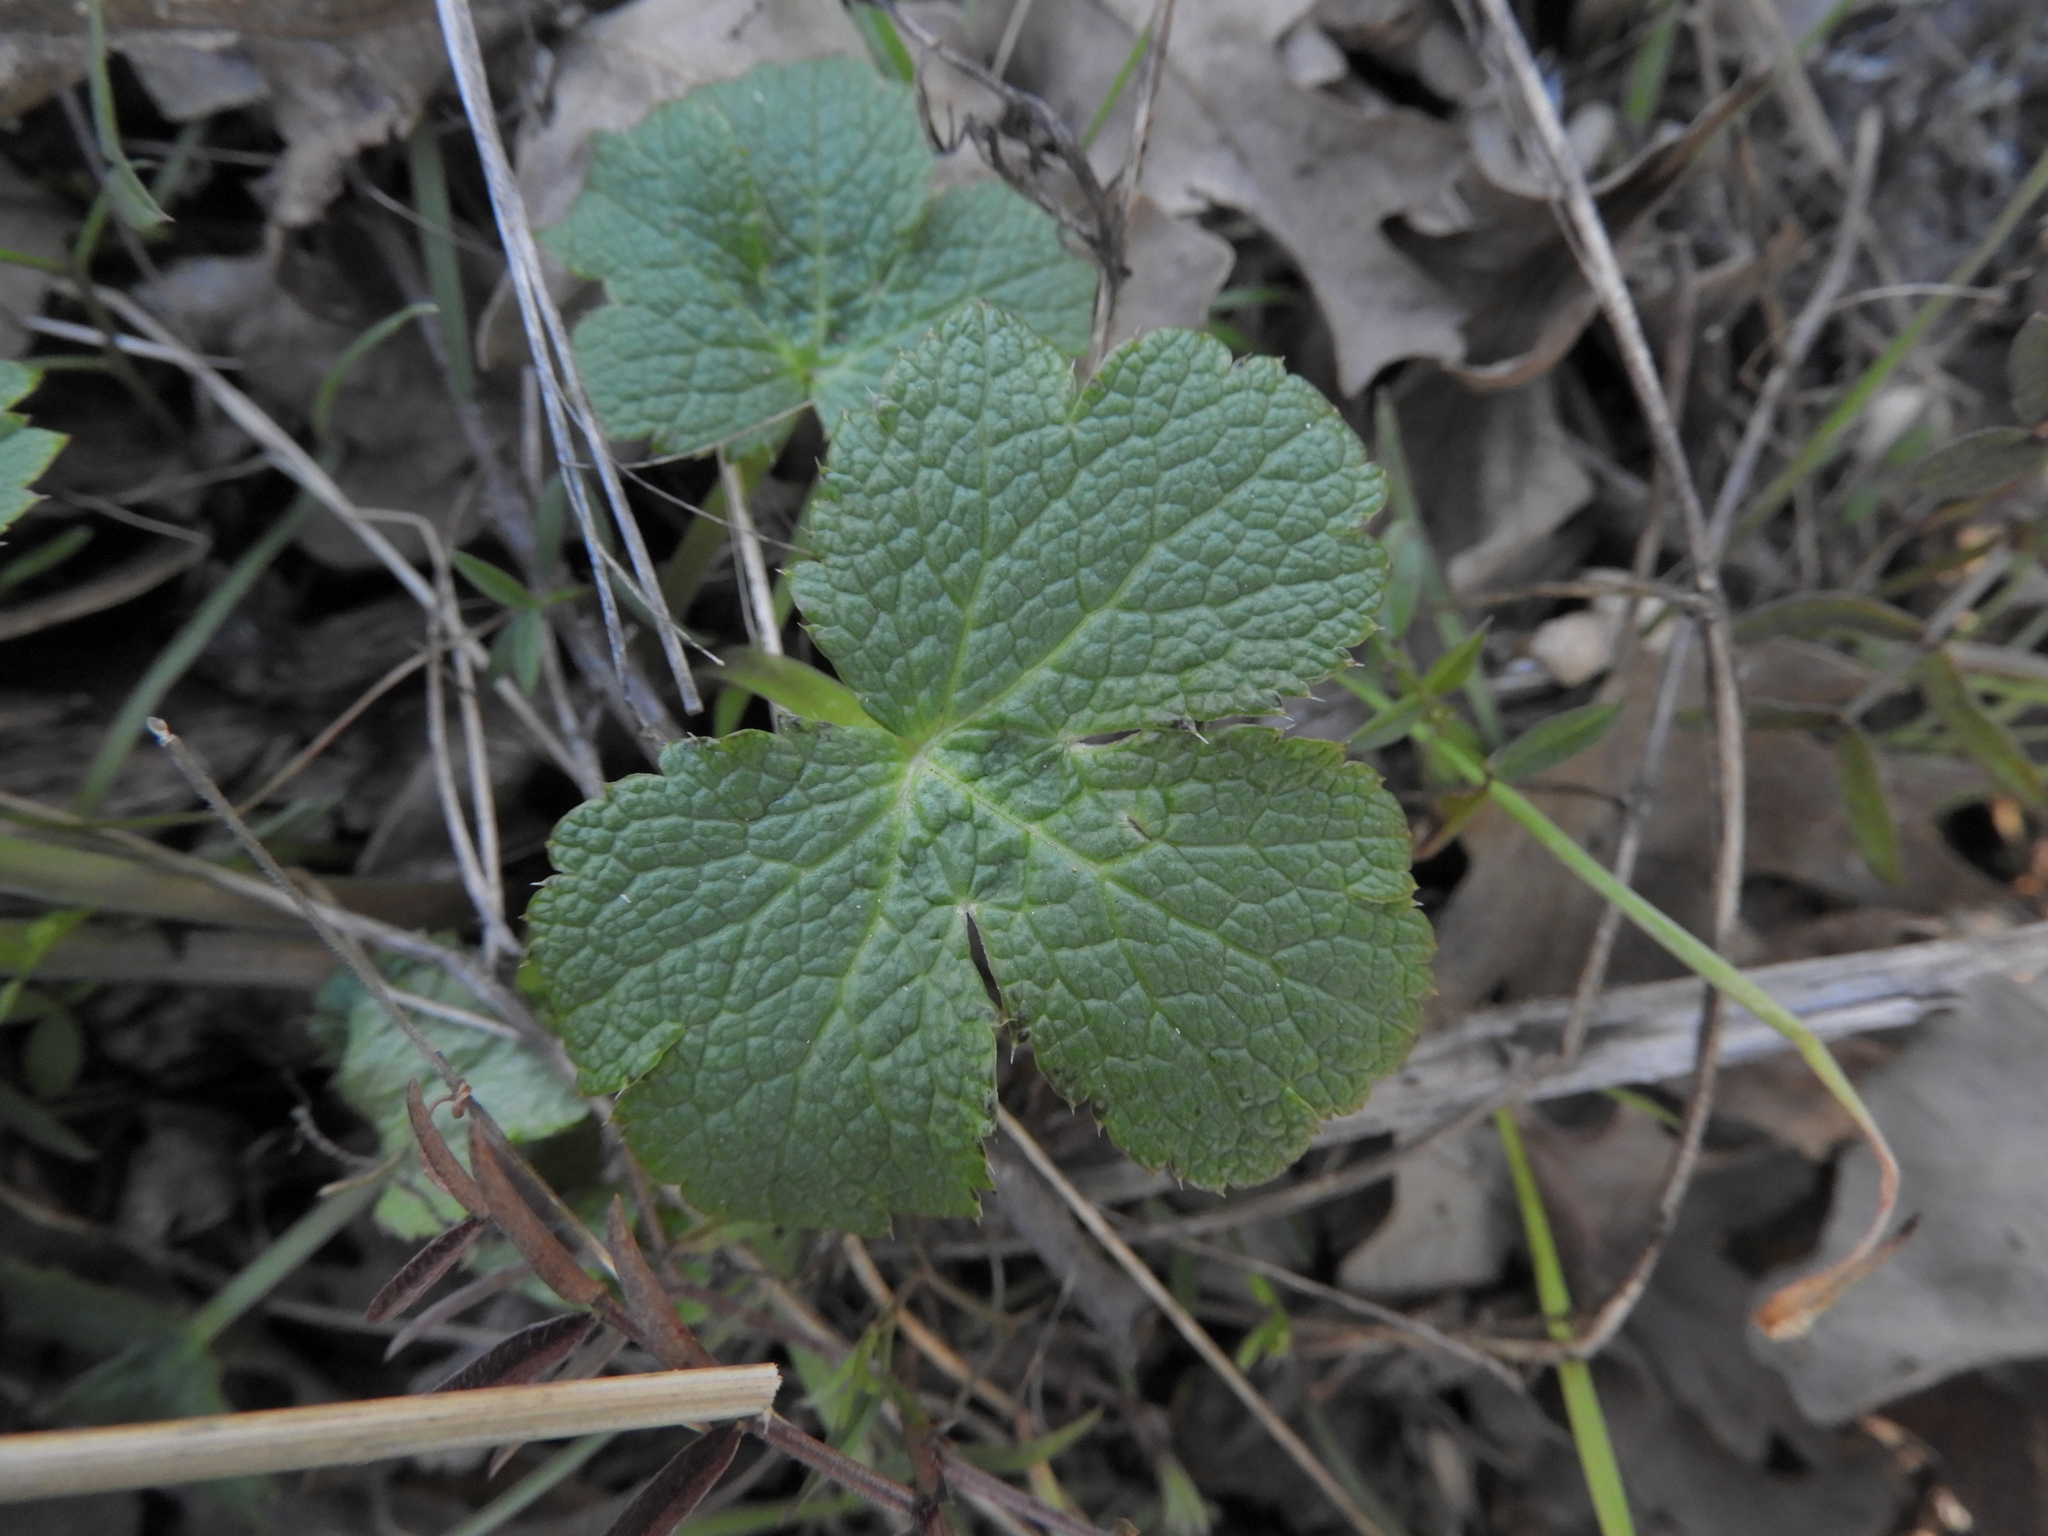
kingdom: Plantae
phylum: Tracheophyta
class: Magnoliopsida
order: Apiales
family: Apiaceae
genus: Sanicula
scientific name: Sanicula crassicaulis
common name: Western snakeroot
